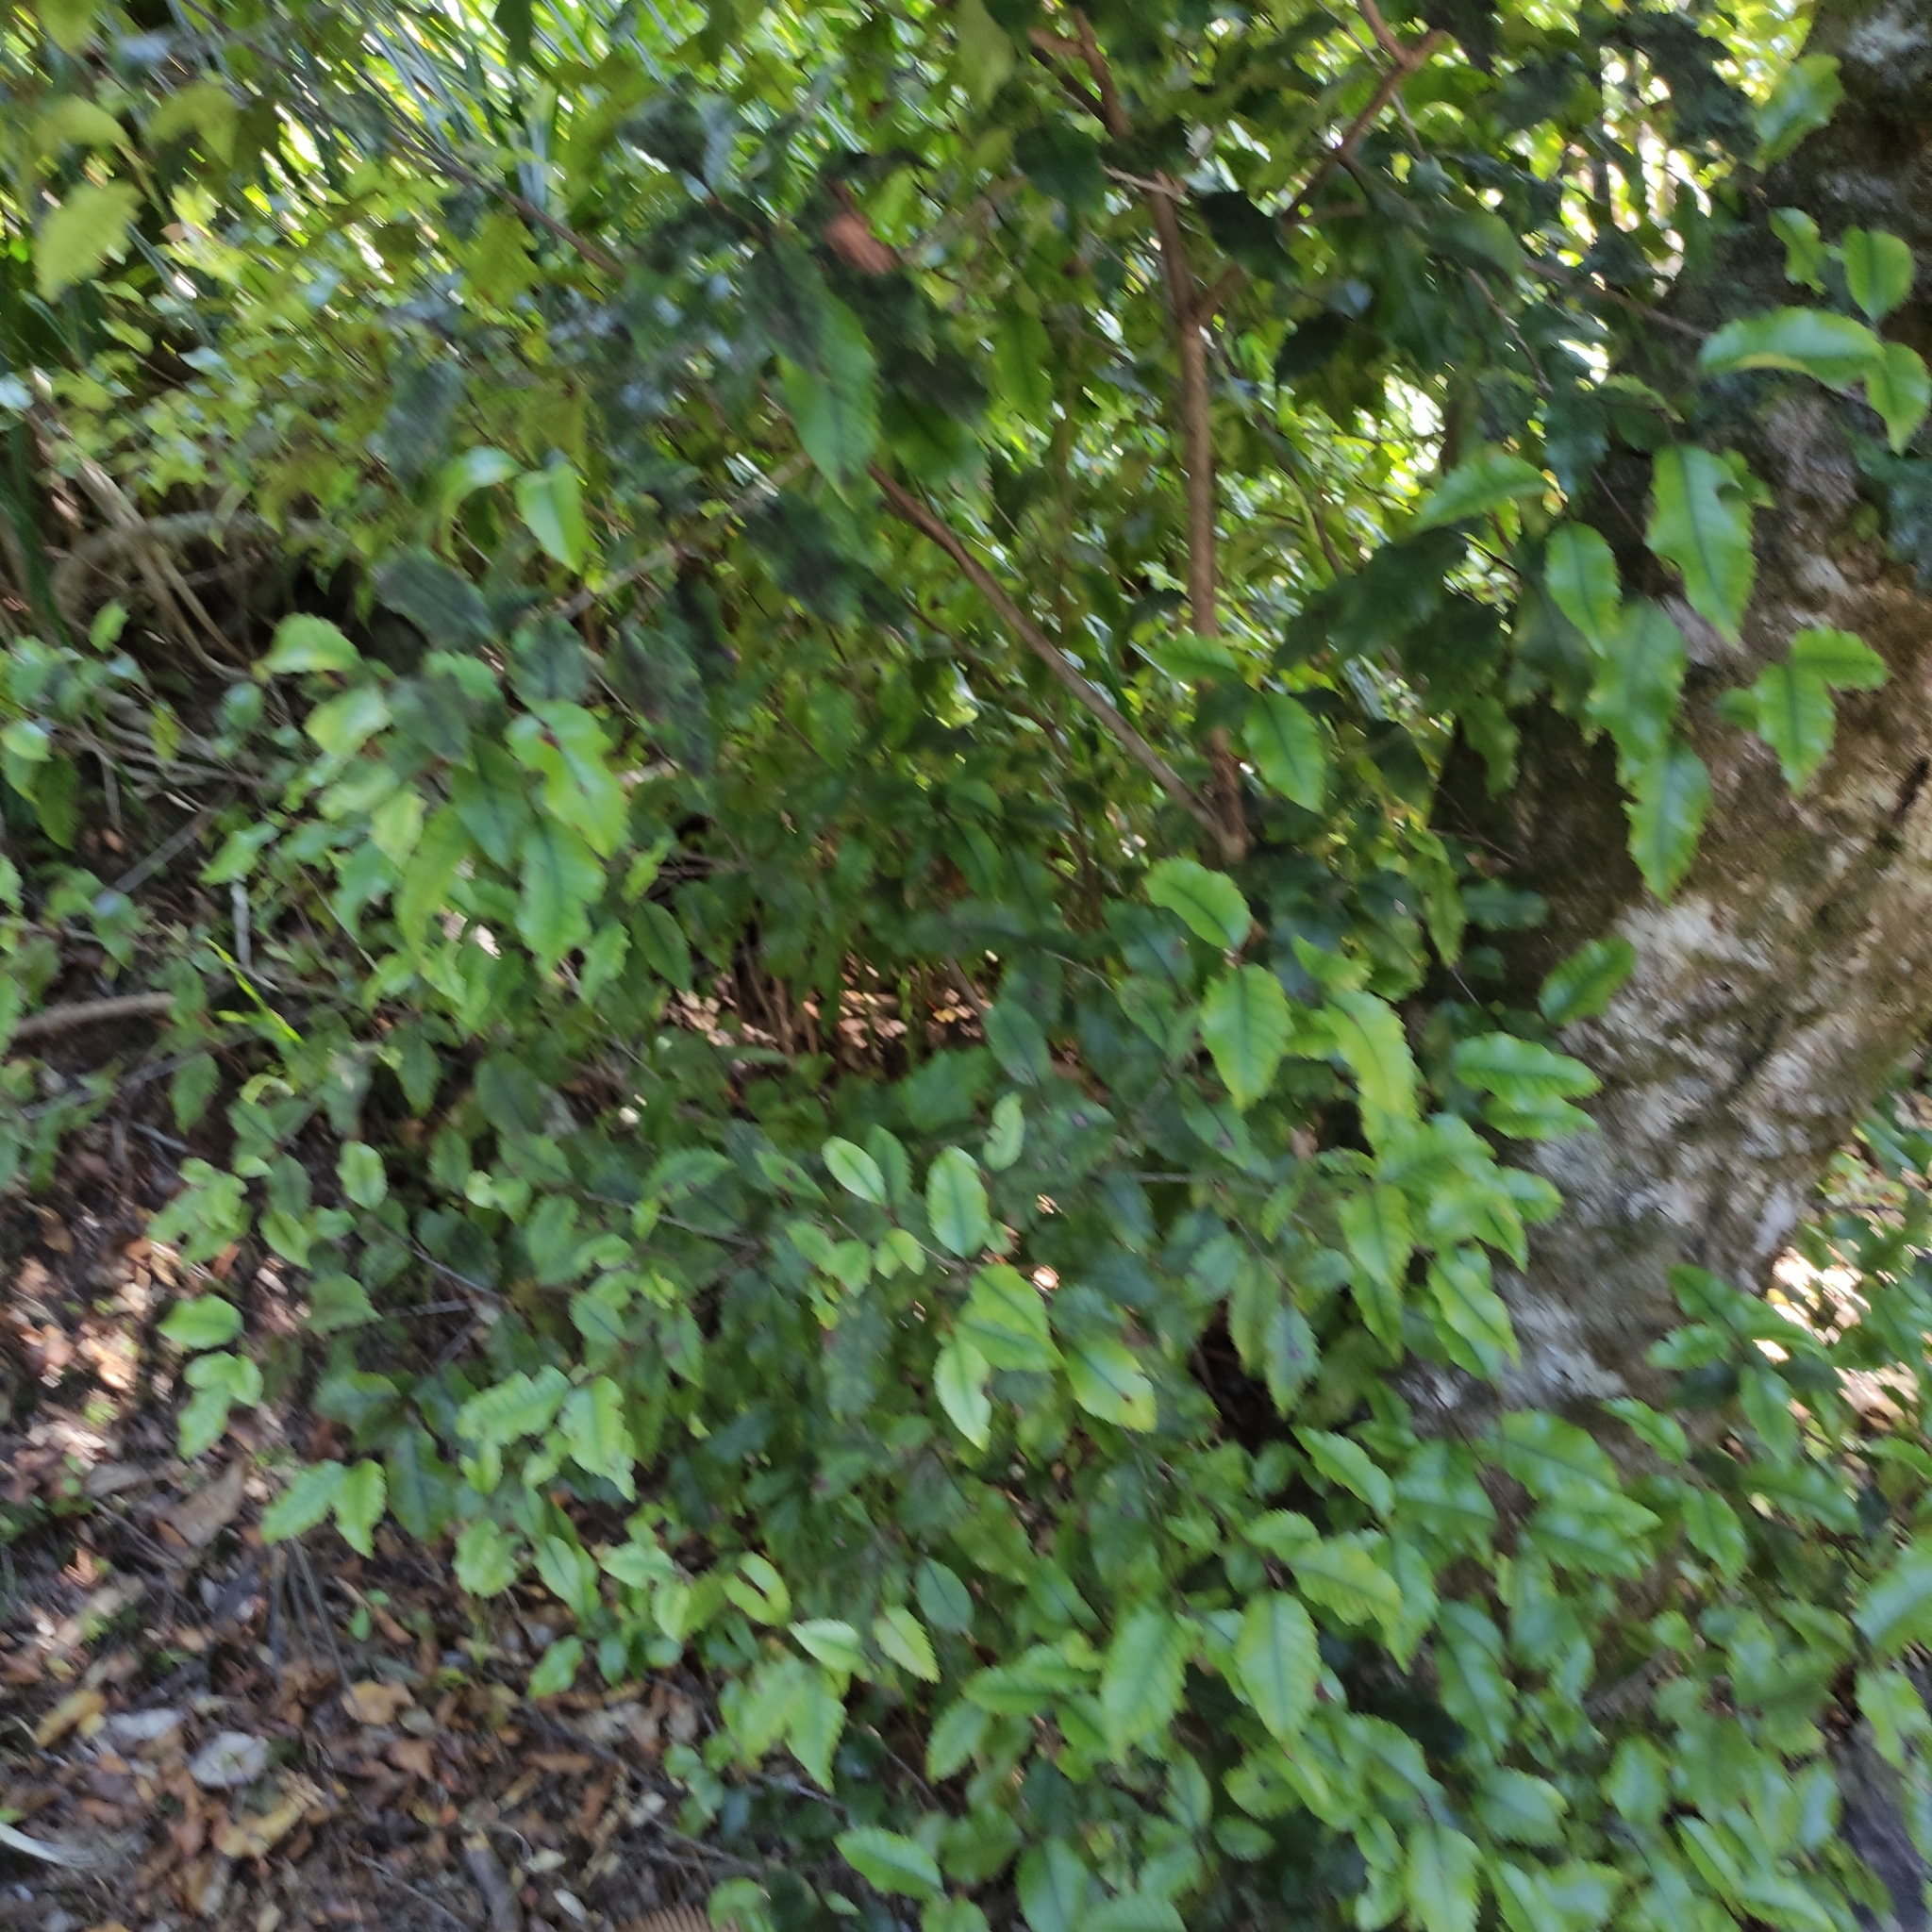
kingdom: Plantae
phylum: Tracheophyta
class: Magnoliopsida
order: Oxalidales
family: Cunoniaceae
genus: Pterophylla
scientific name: Pterophylla racemosa
